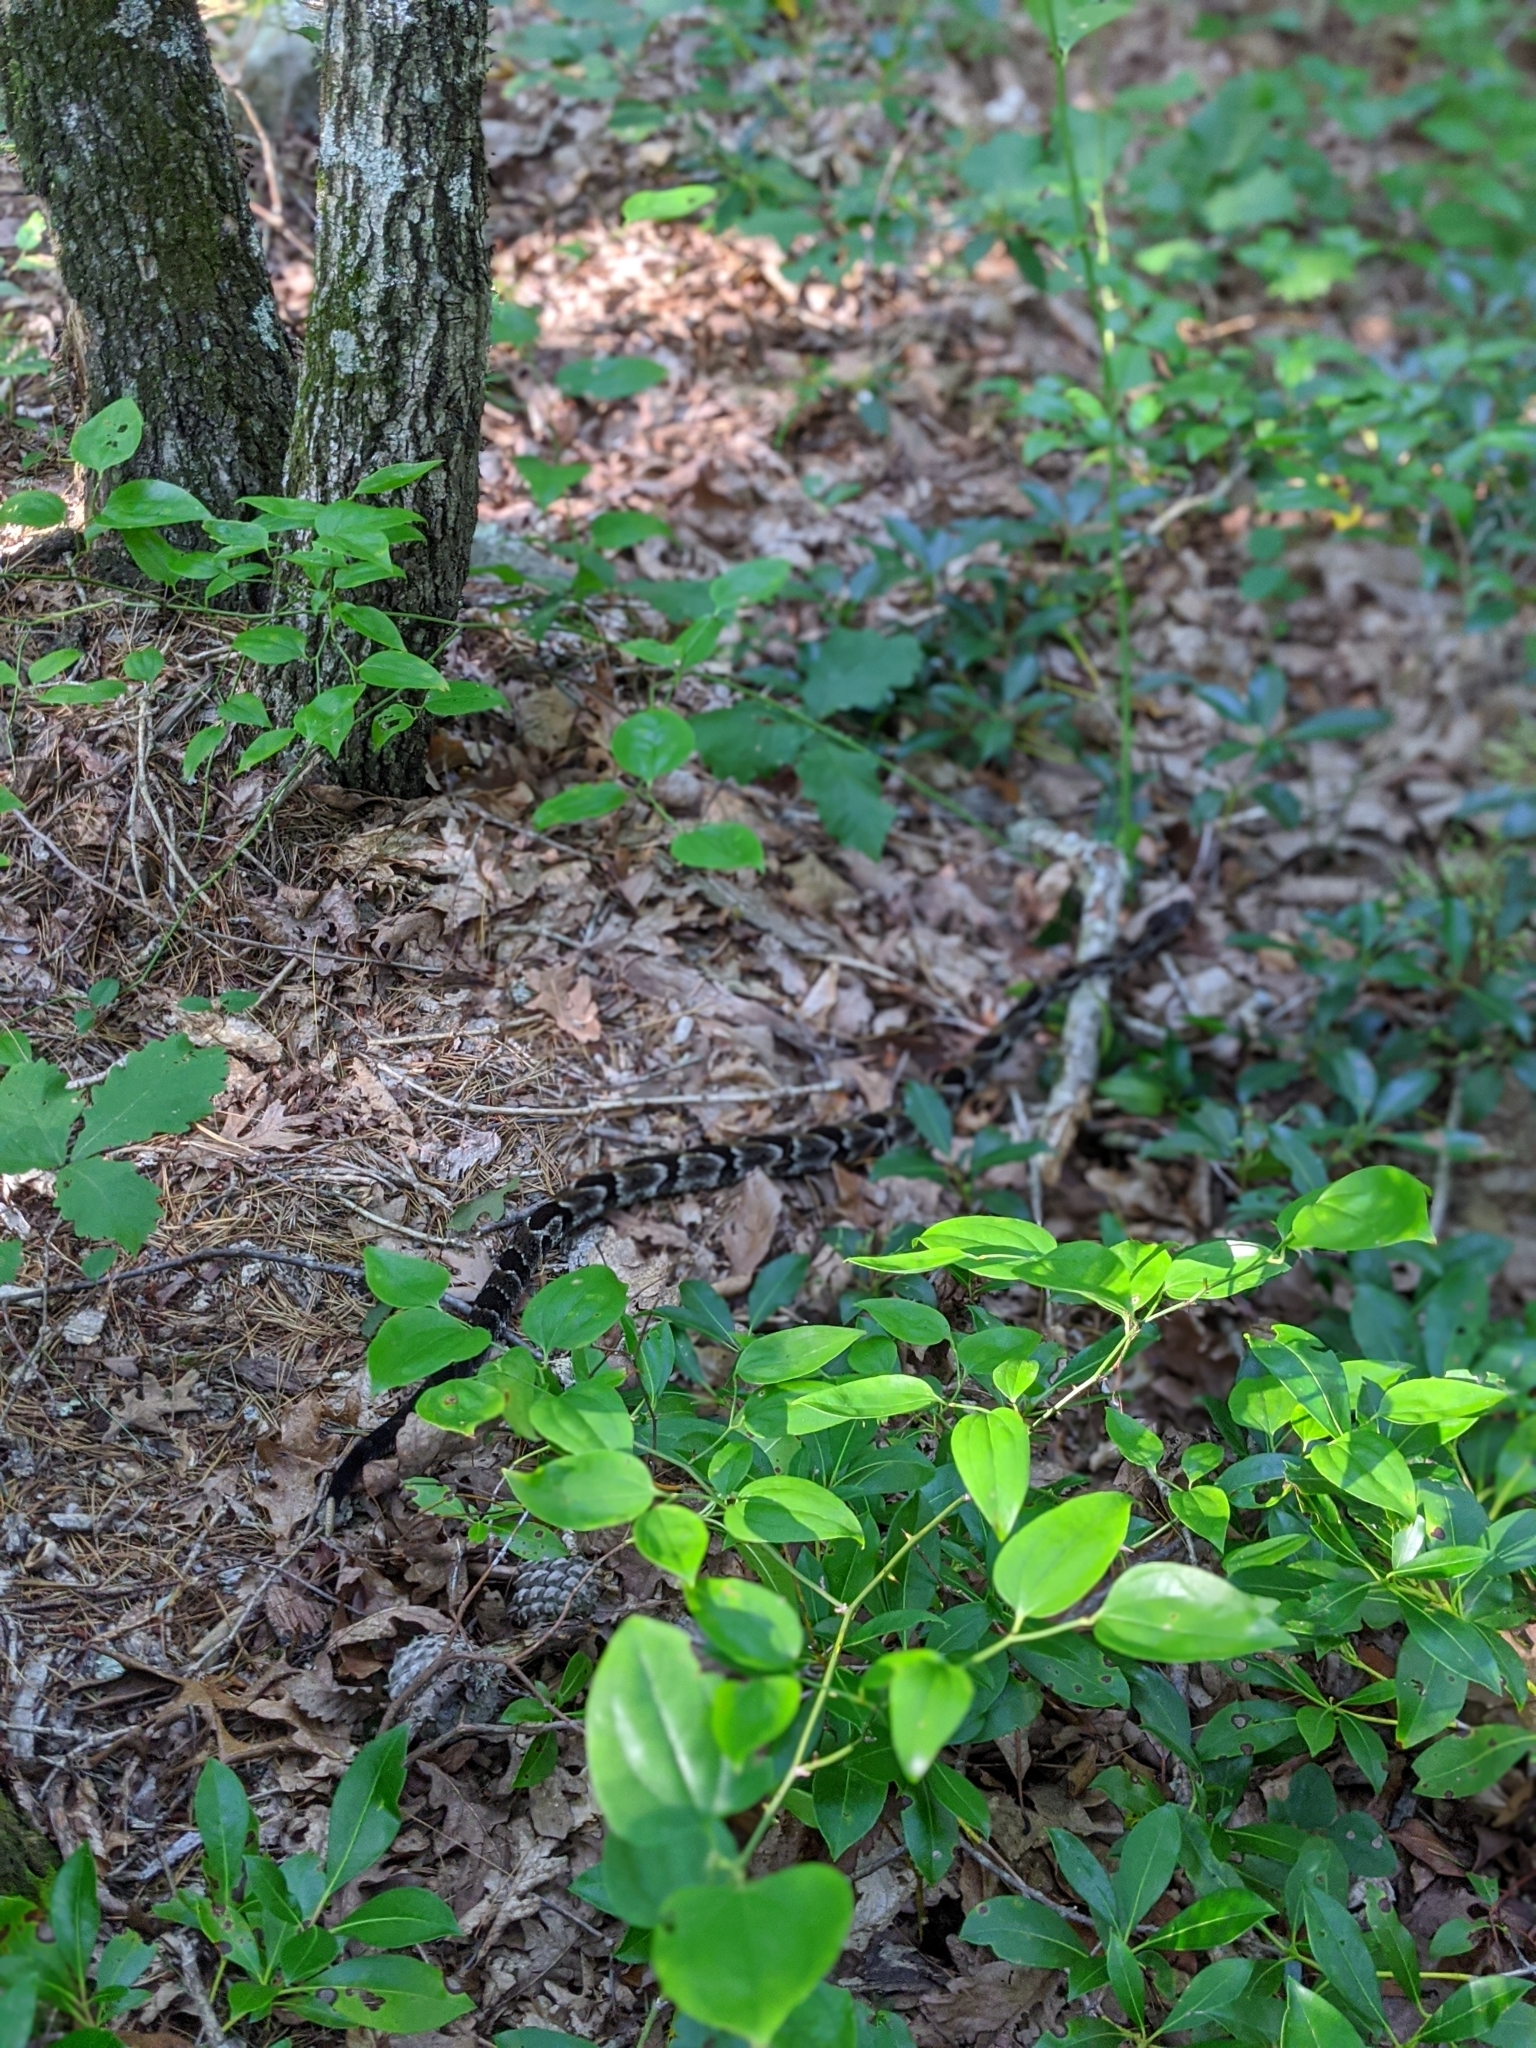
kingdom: Animalia
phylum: Chordata
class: Squamata
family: Viperidae
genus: Crotalus
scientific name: Crotalus horridus
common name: Timber rattlesnake
